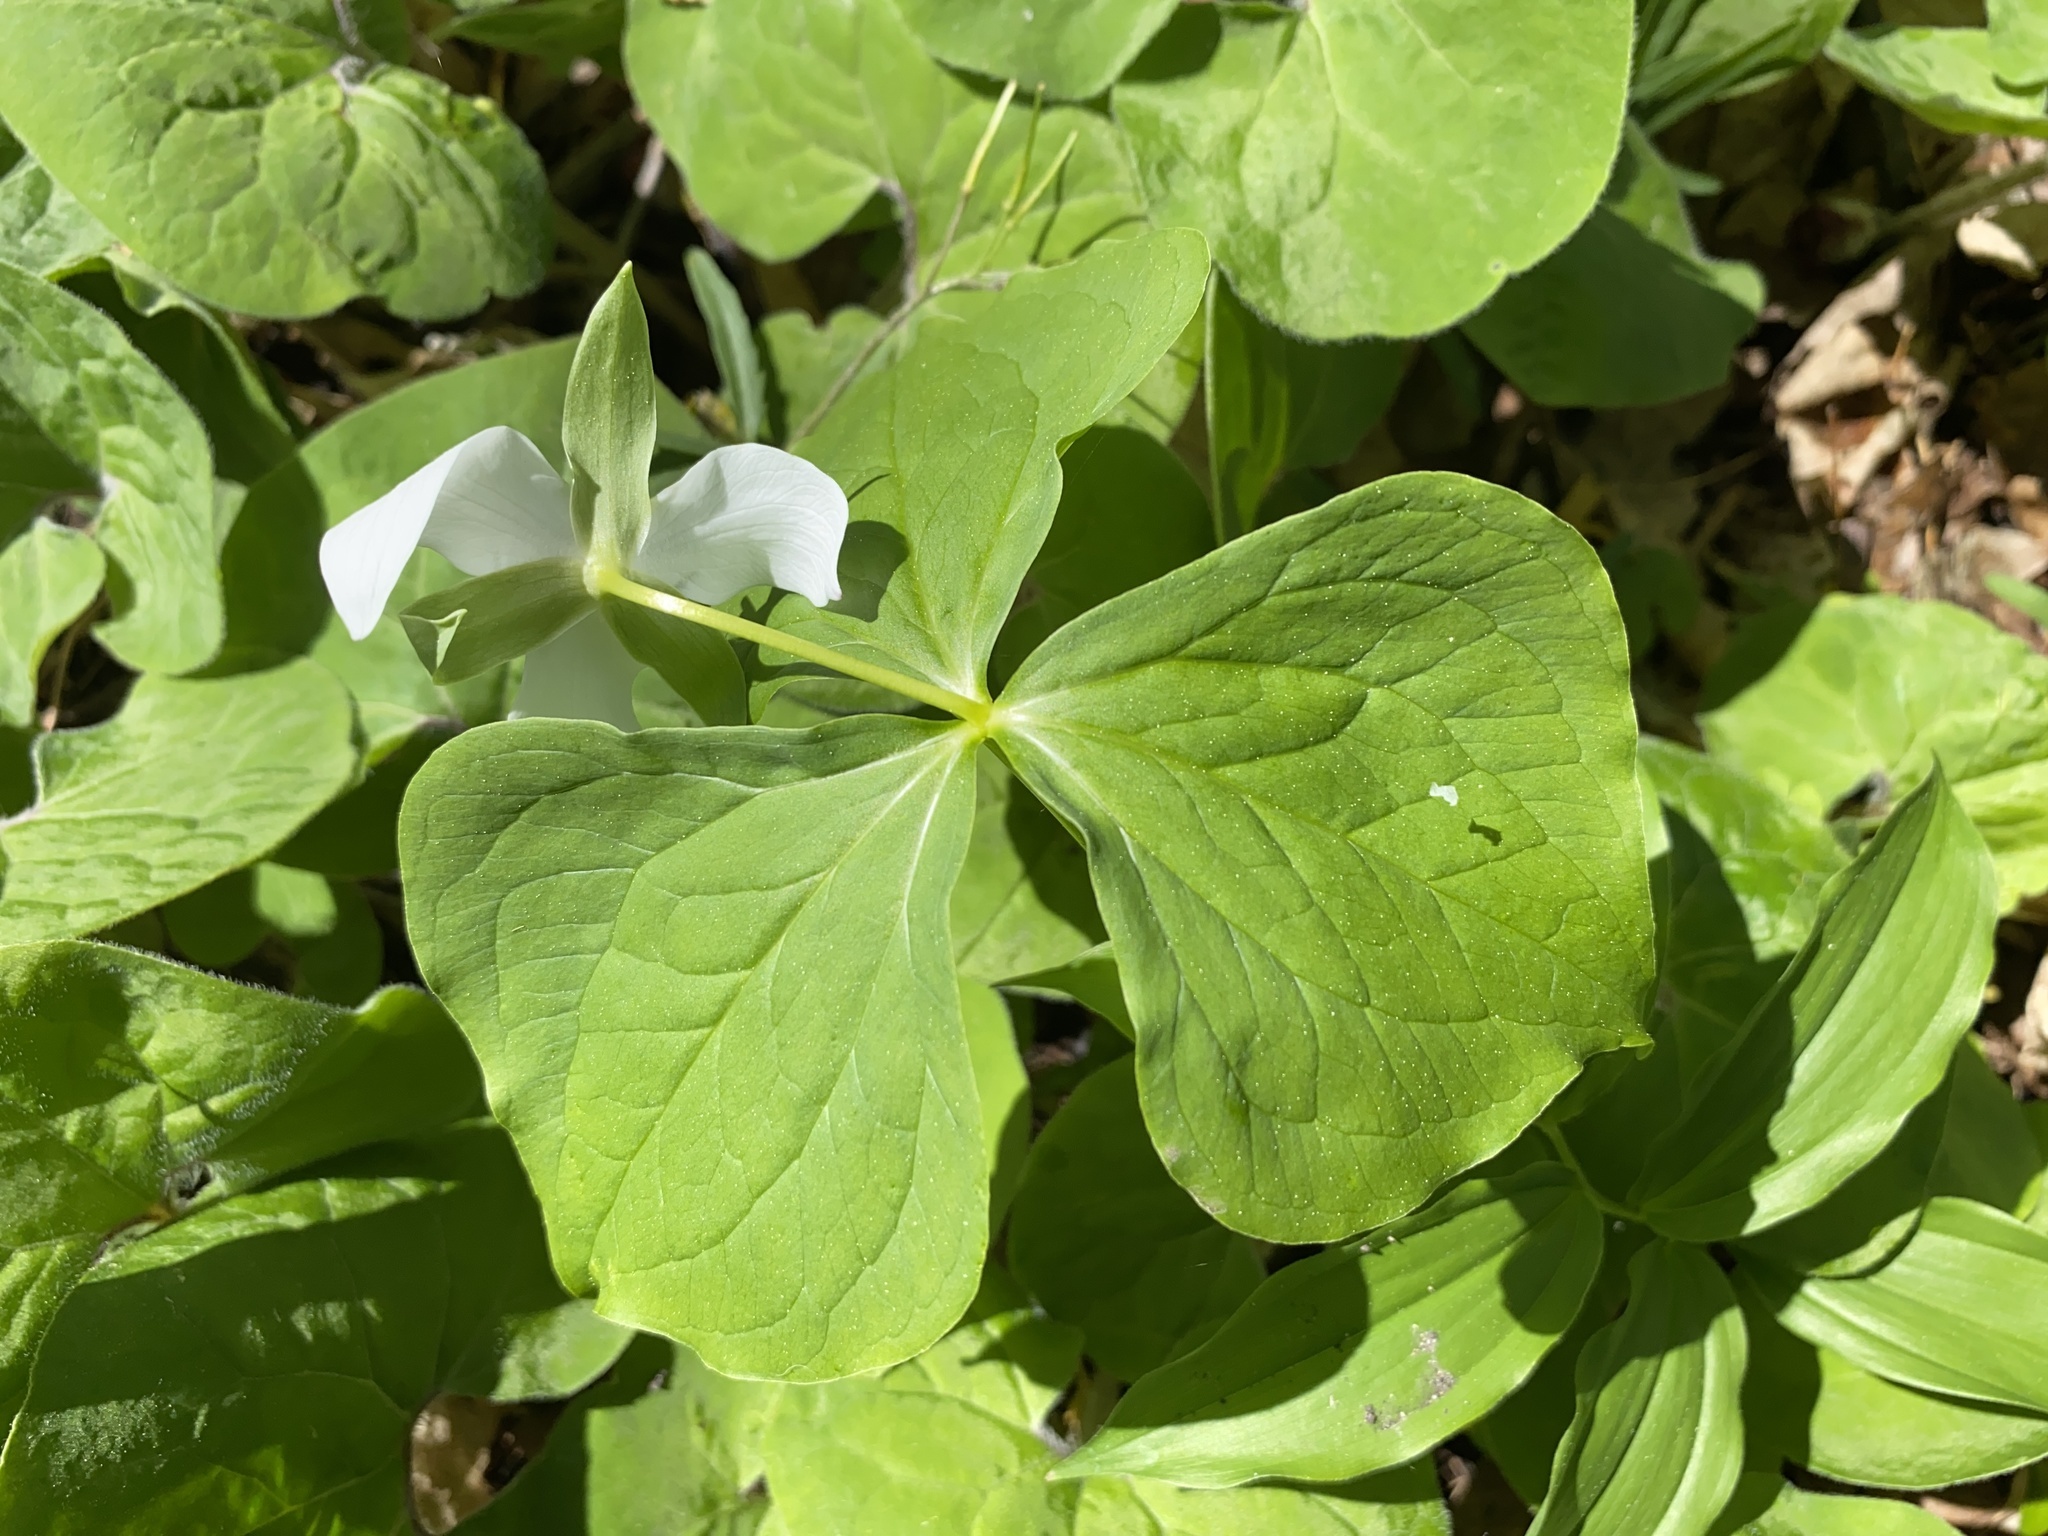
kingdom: Plantae
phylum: Tracheophyta
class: Liliopsida
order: Liliales
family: Melanthiaceae
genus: Trillium
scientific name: Trillium flexipes
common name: Drooping trillium
